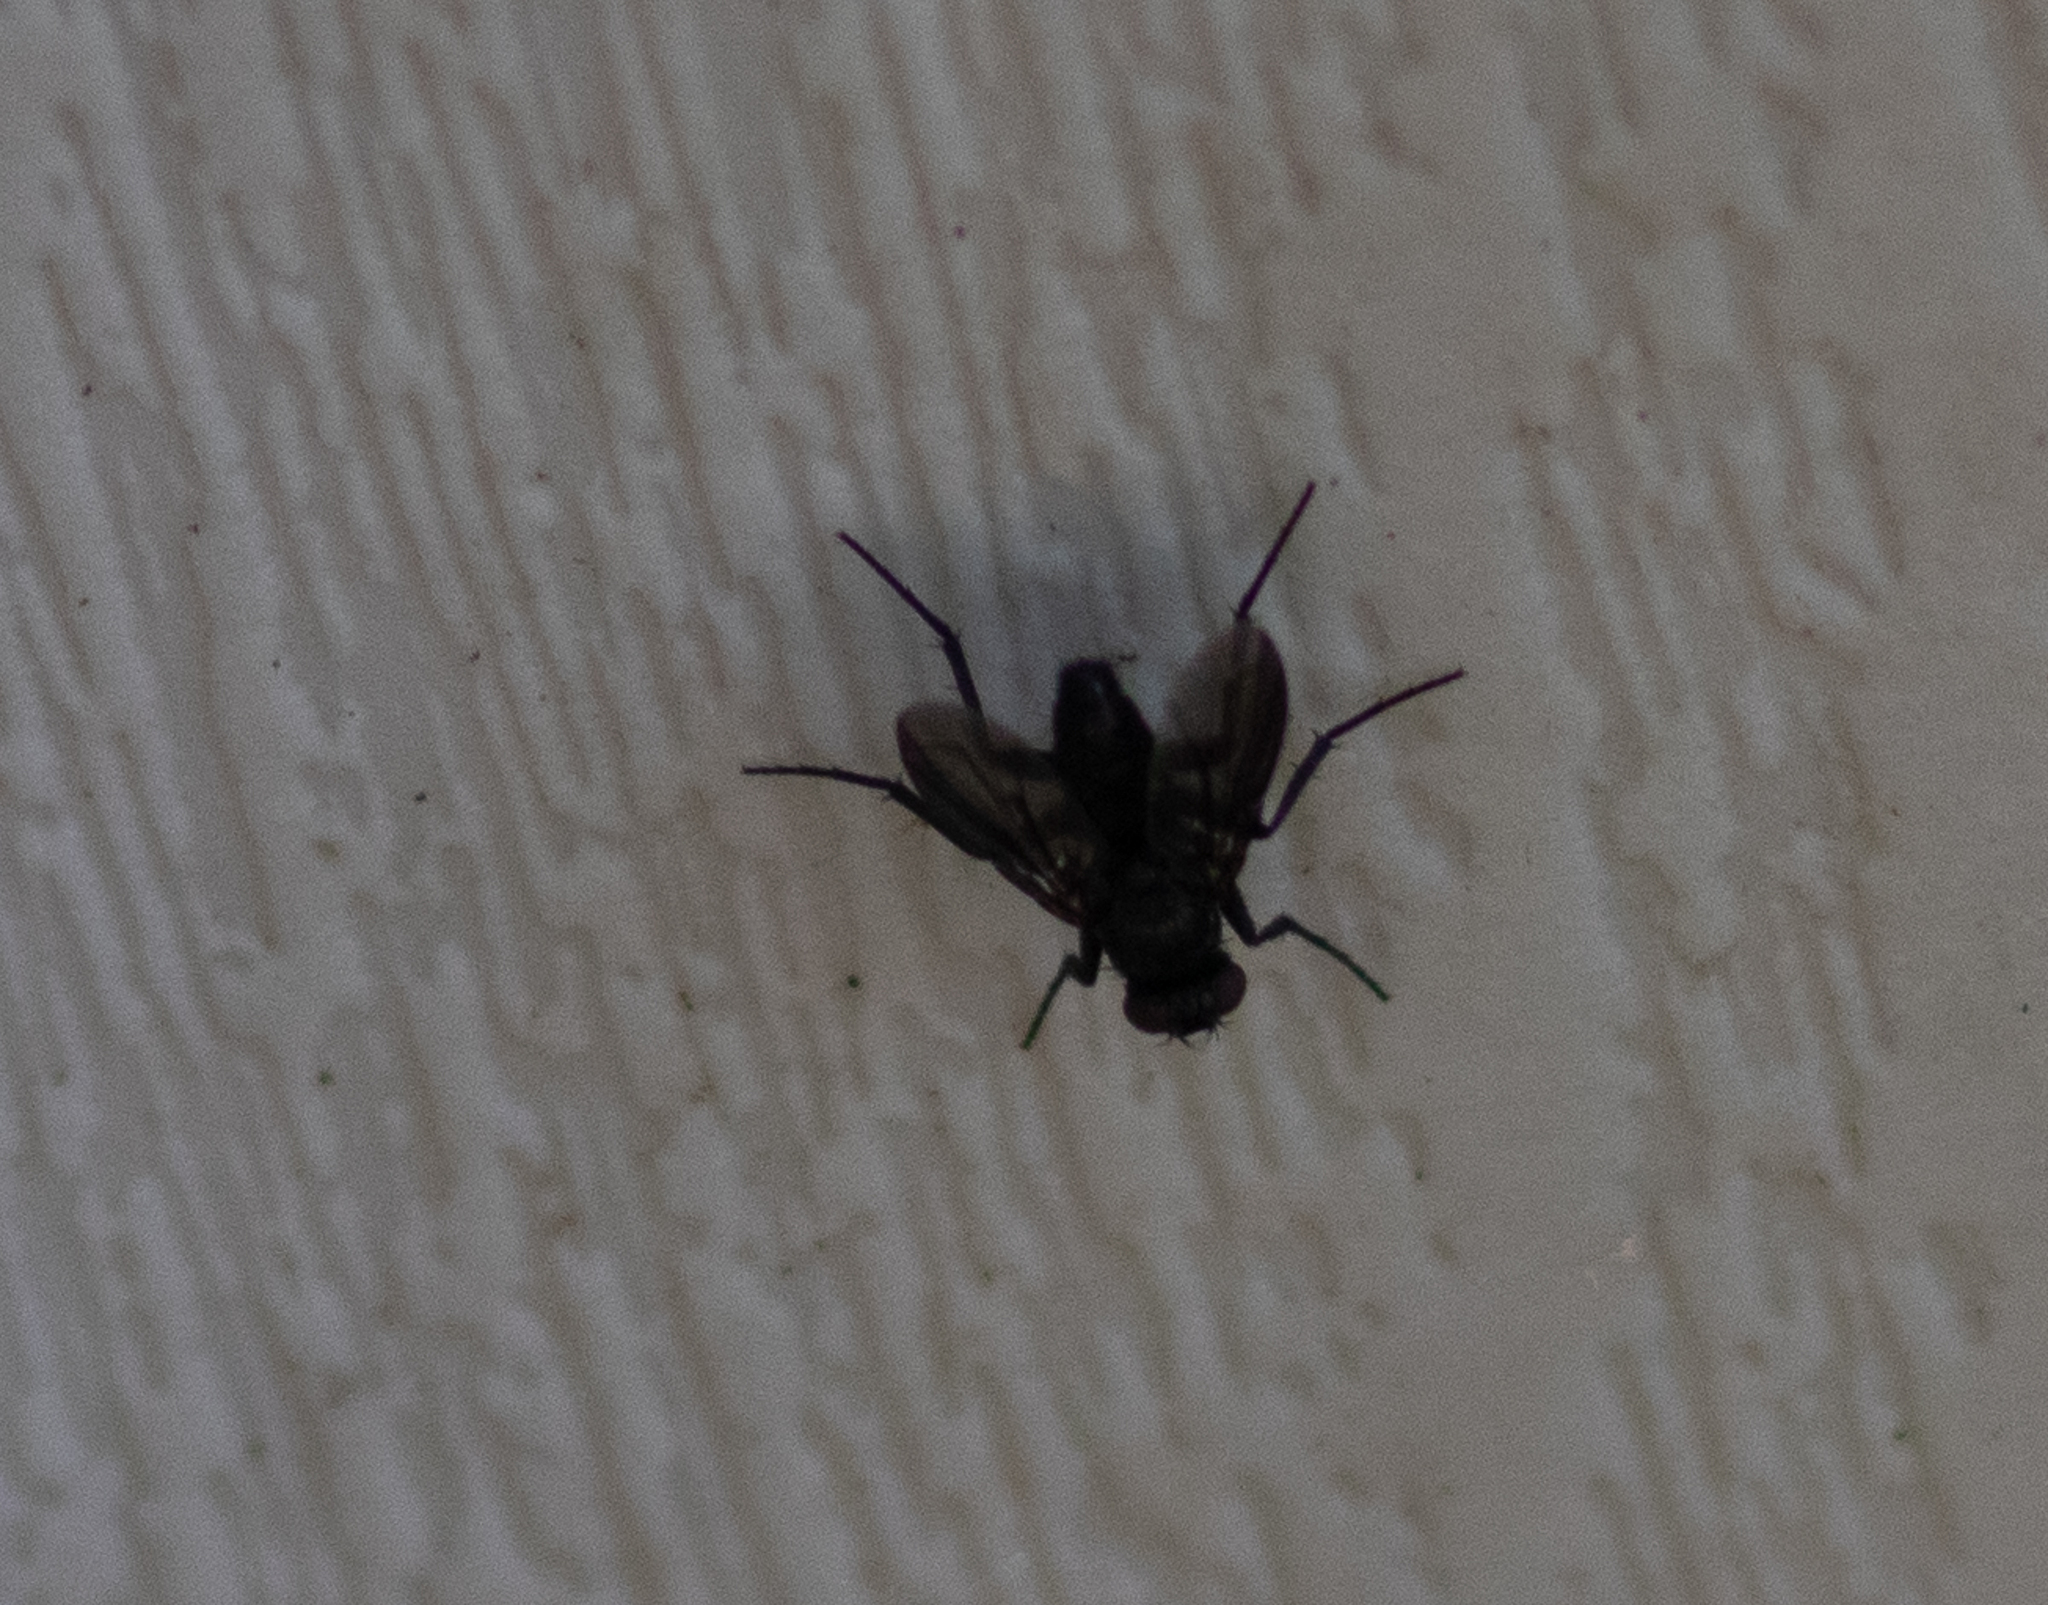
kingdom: Animalia
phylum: Arthropoda
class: Insecta
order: Diptera
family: Calliphoridae
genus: Melanophora
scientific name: Melanophora roralis
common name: Smoky-winged woodlouse-fly
